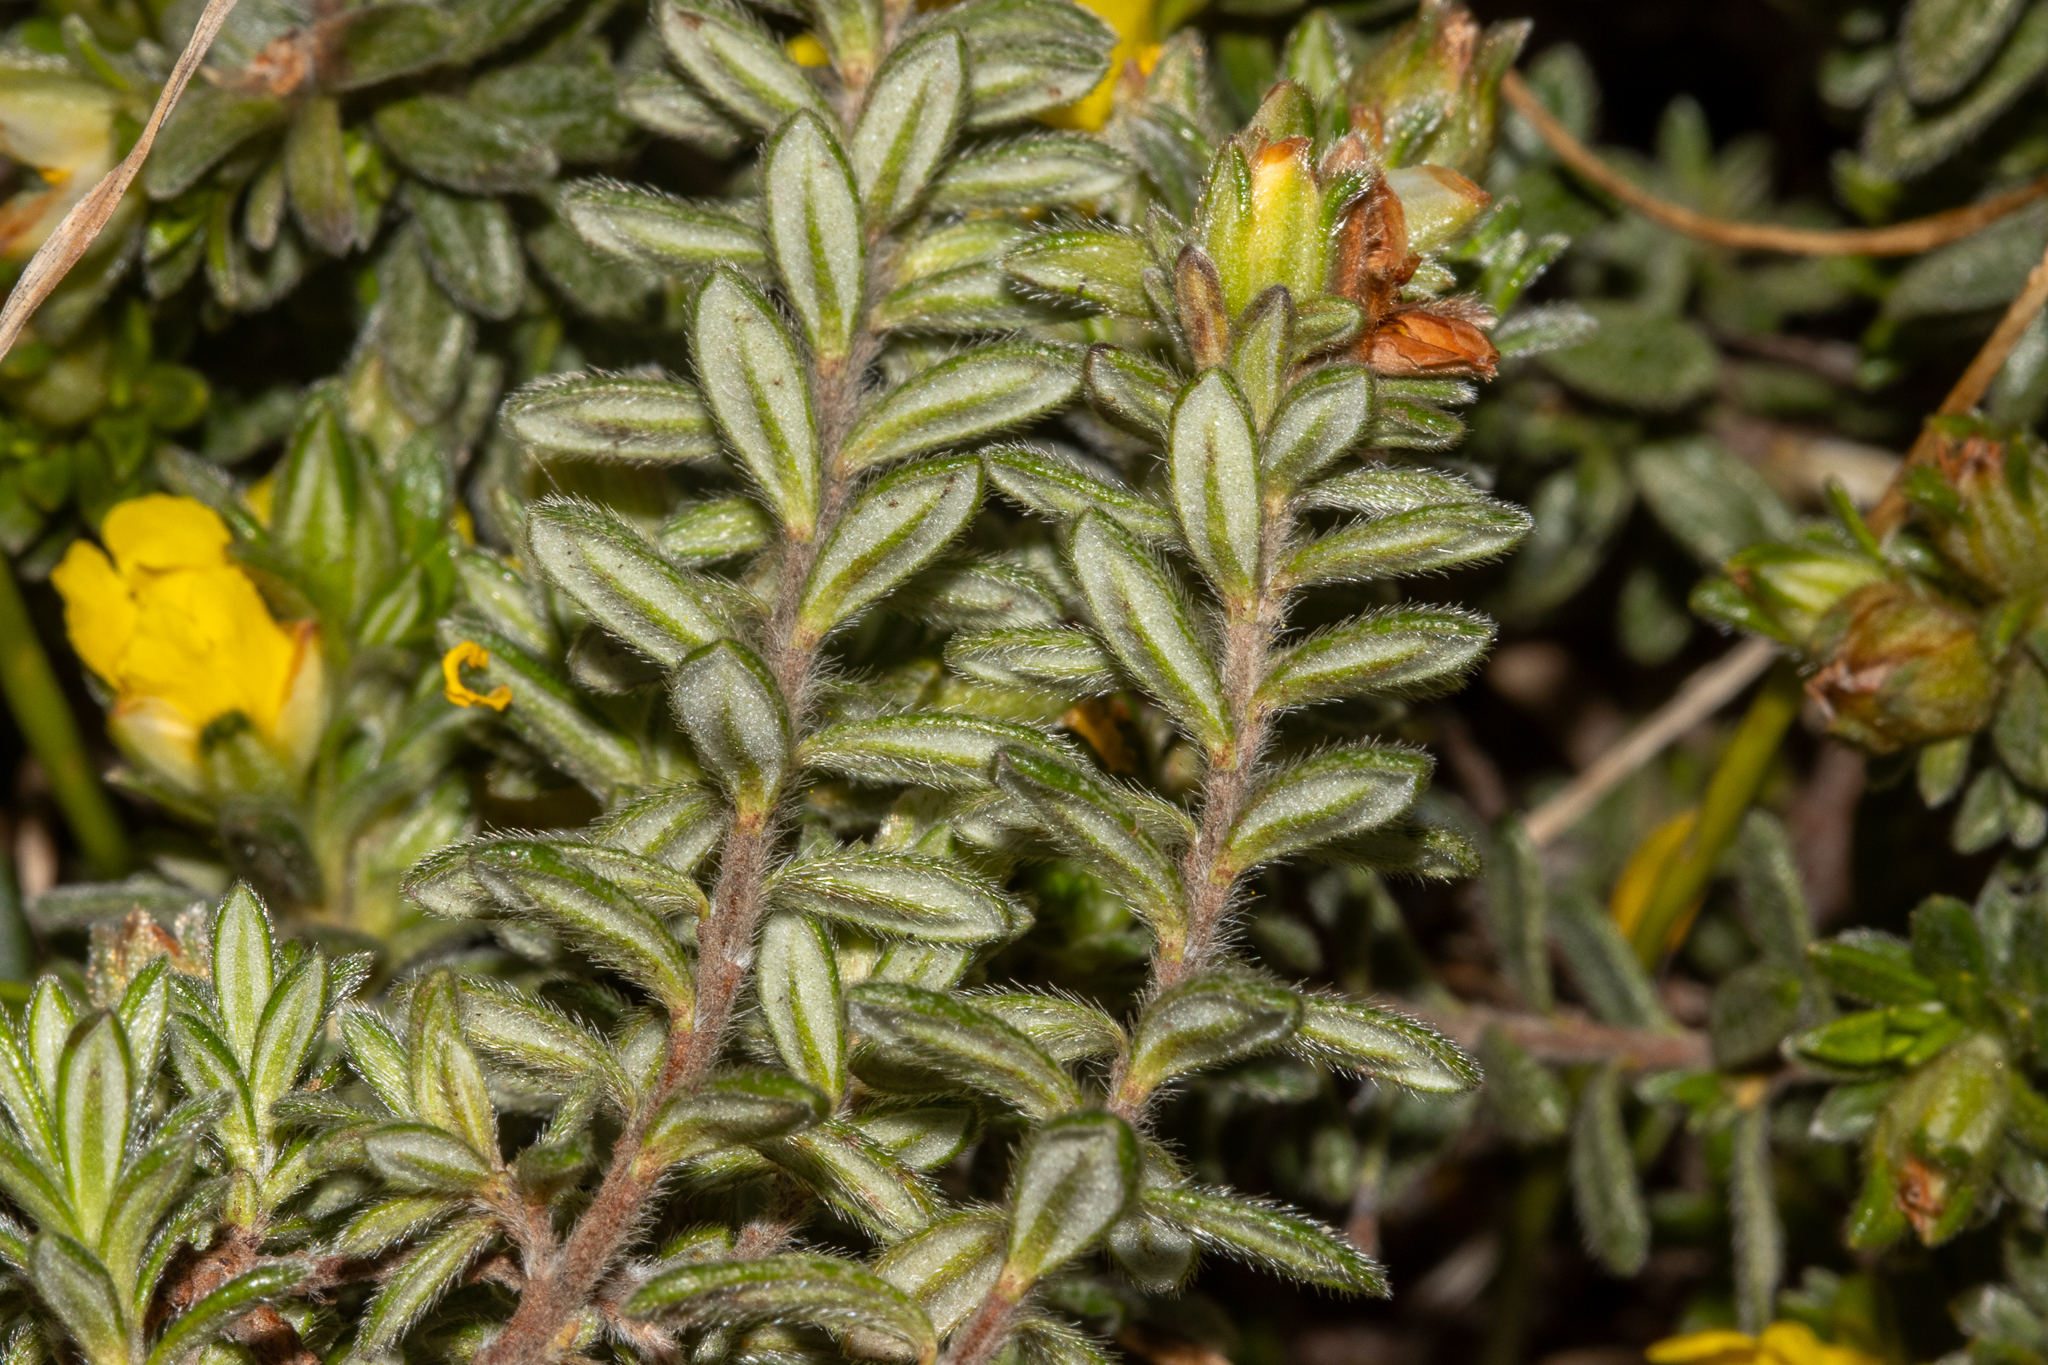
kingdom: Plantae
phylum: Tracheophyta
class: Magnoliopsida
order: Dilleniales
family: Dilleniaceae
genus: Hibbertia
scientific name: Hibbertia sericea
